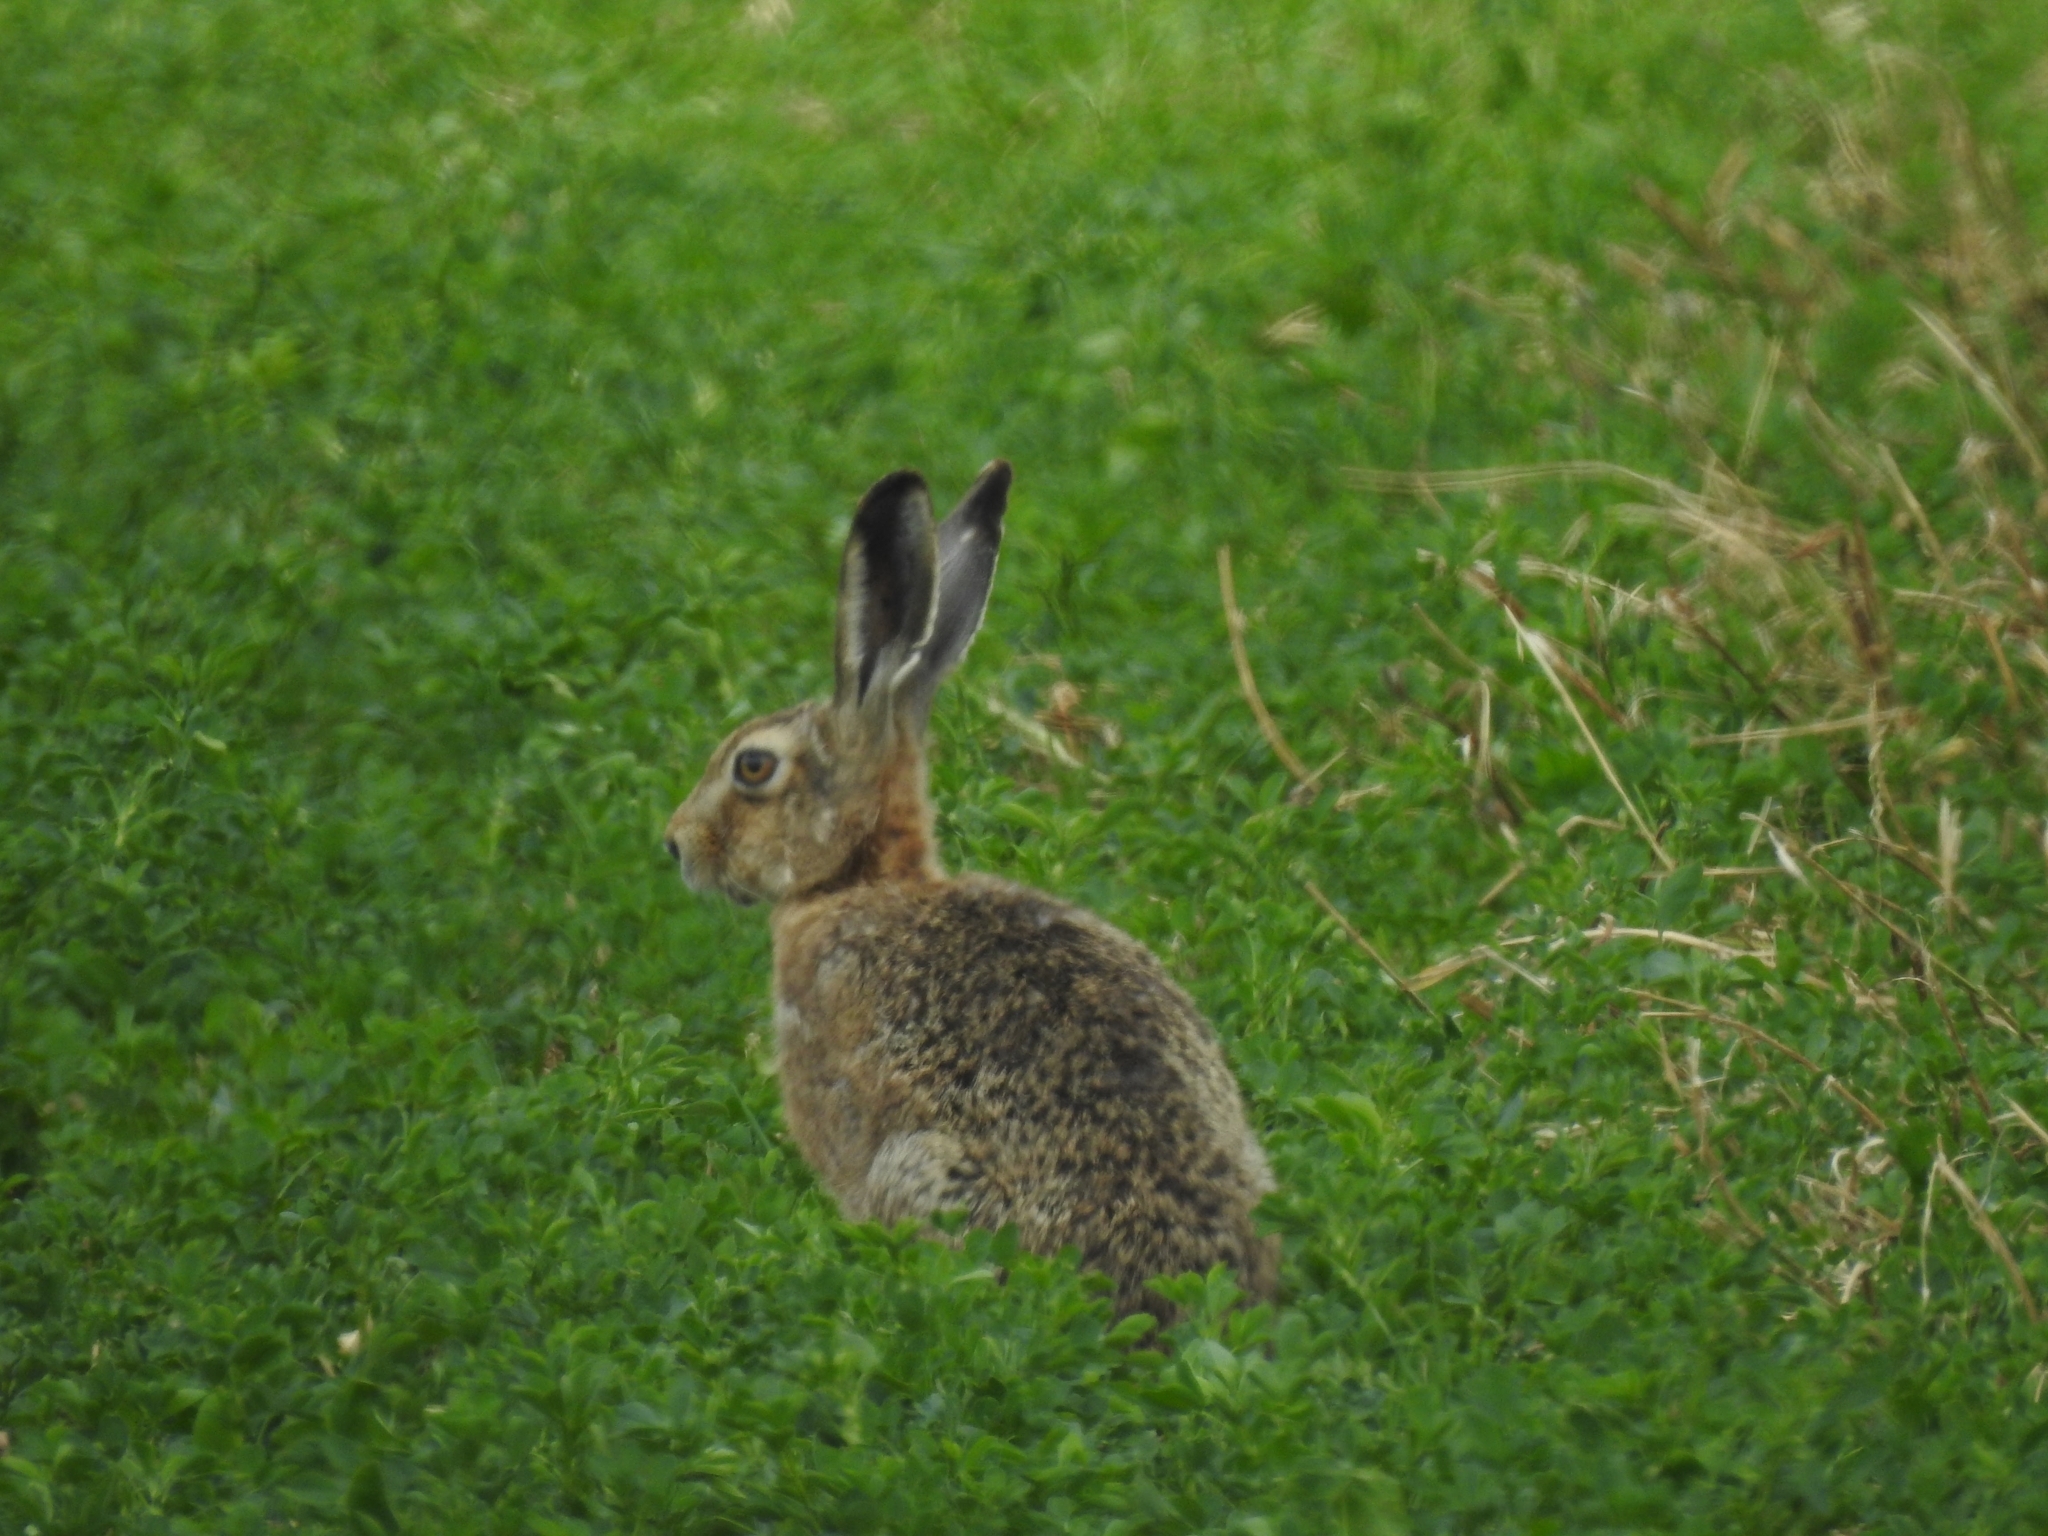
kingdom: Animalia
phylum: Chordata
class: Mammalia
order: Lagomorpha
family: Leporidae
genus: Lepus
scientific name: Lepus europaeus
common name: European hare
